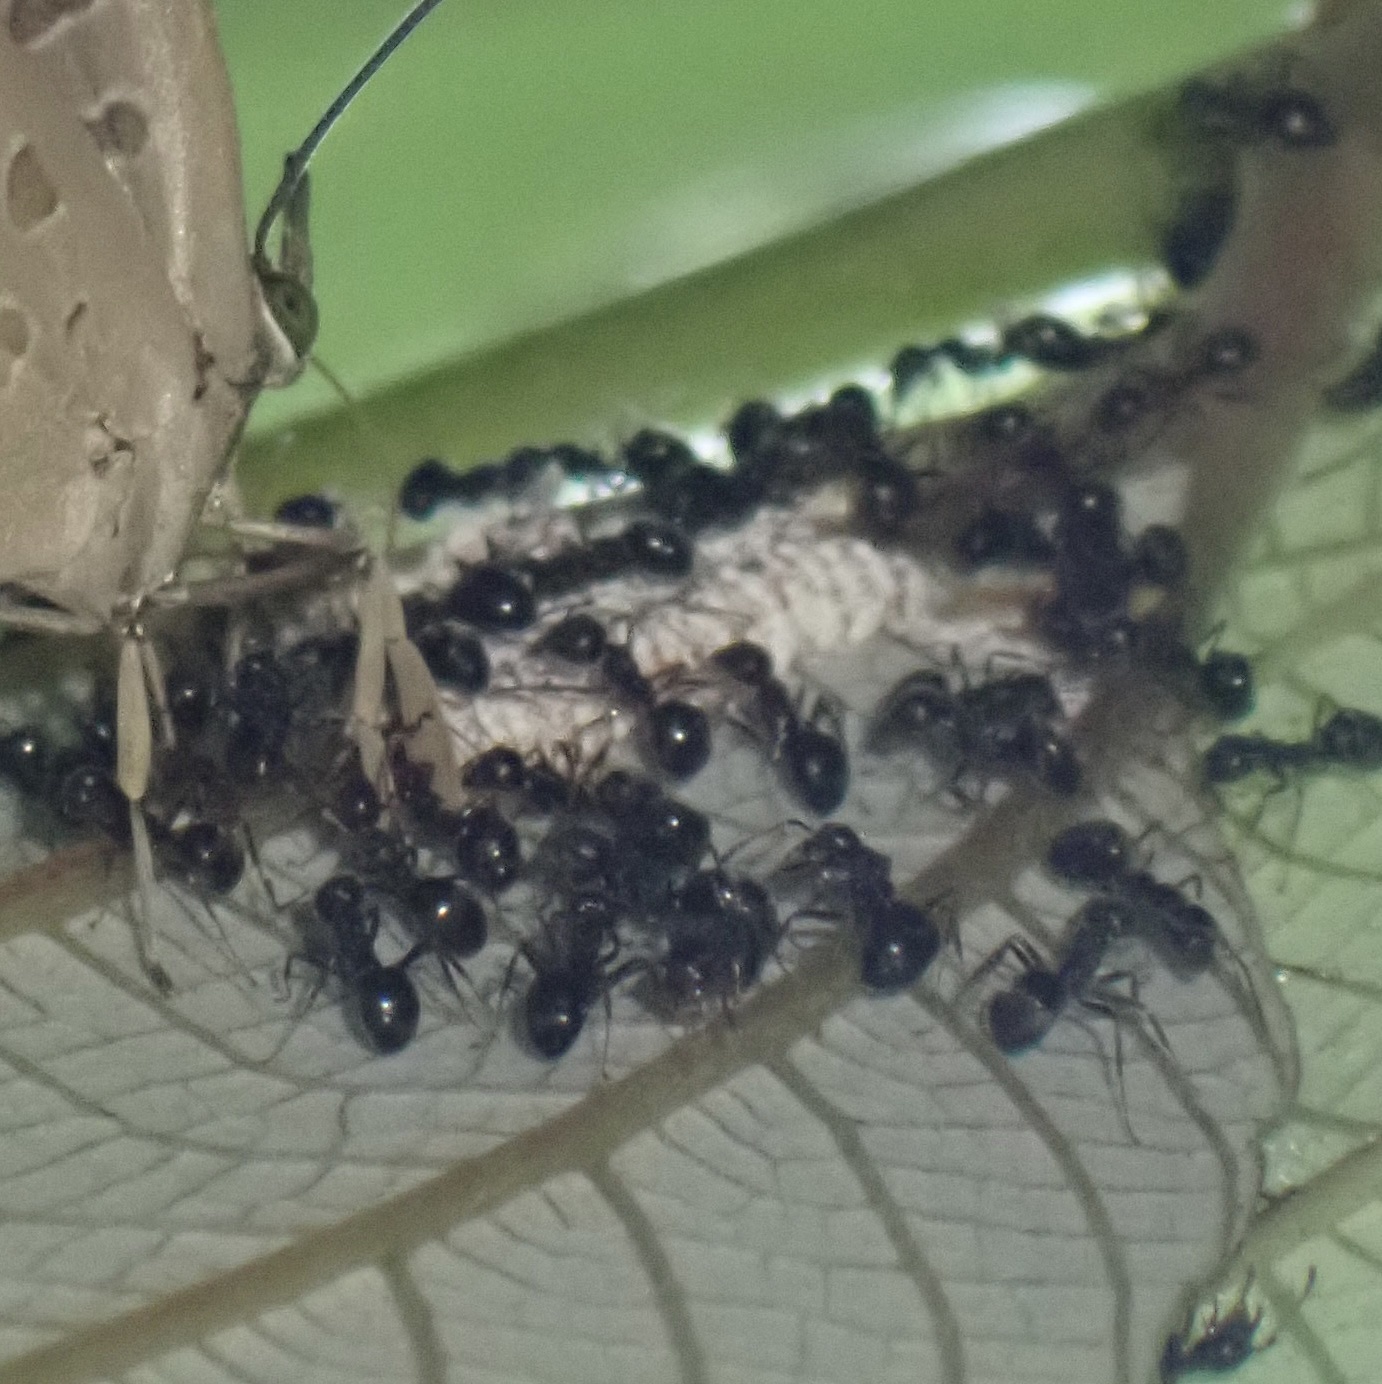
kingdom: Animalia
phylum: Arthropoda
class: Insecta
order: Hymenoptera
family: Formicidae
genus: Dolichoderus
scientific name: Dolichoderus thoracicus
